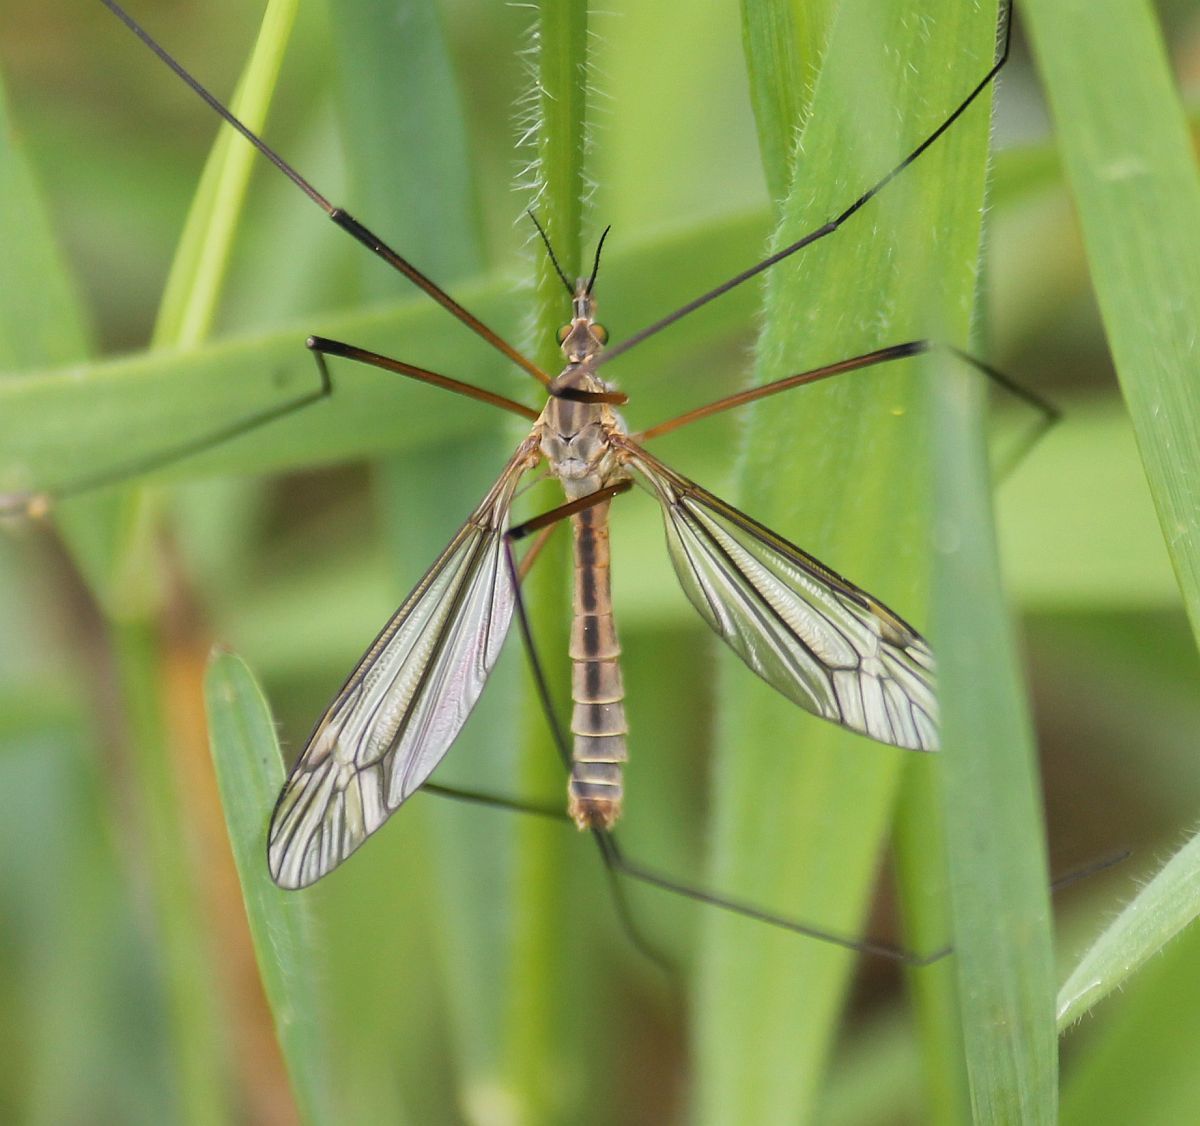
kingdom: Animalia
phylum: Arthropoda
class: Insecta
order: Diptera
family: Tipulidae
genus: Tipula
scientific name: Tipula vernalis
